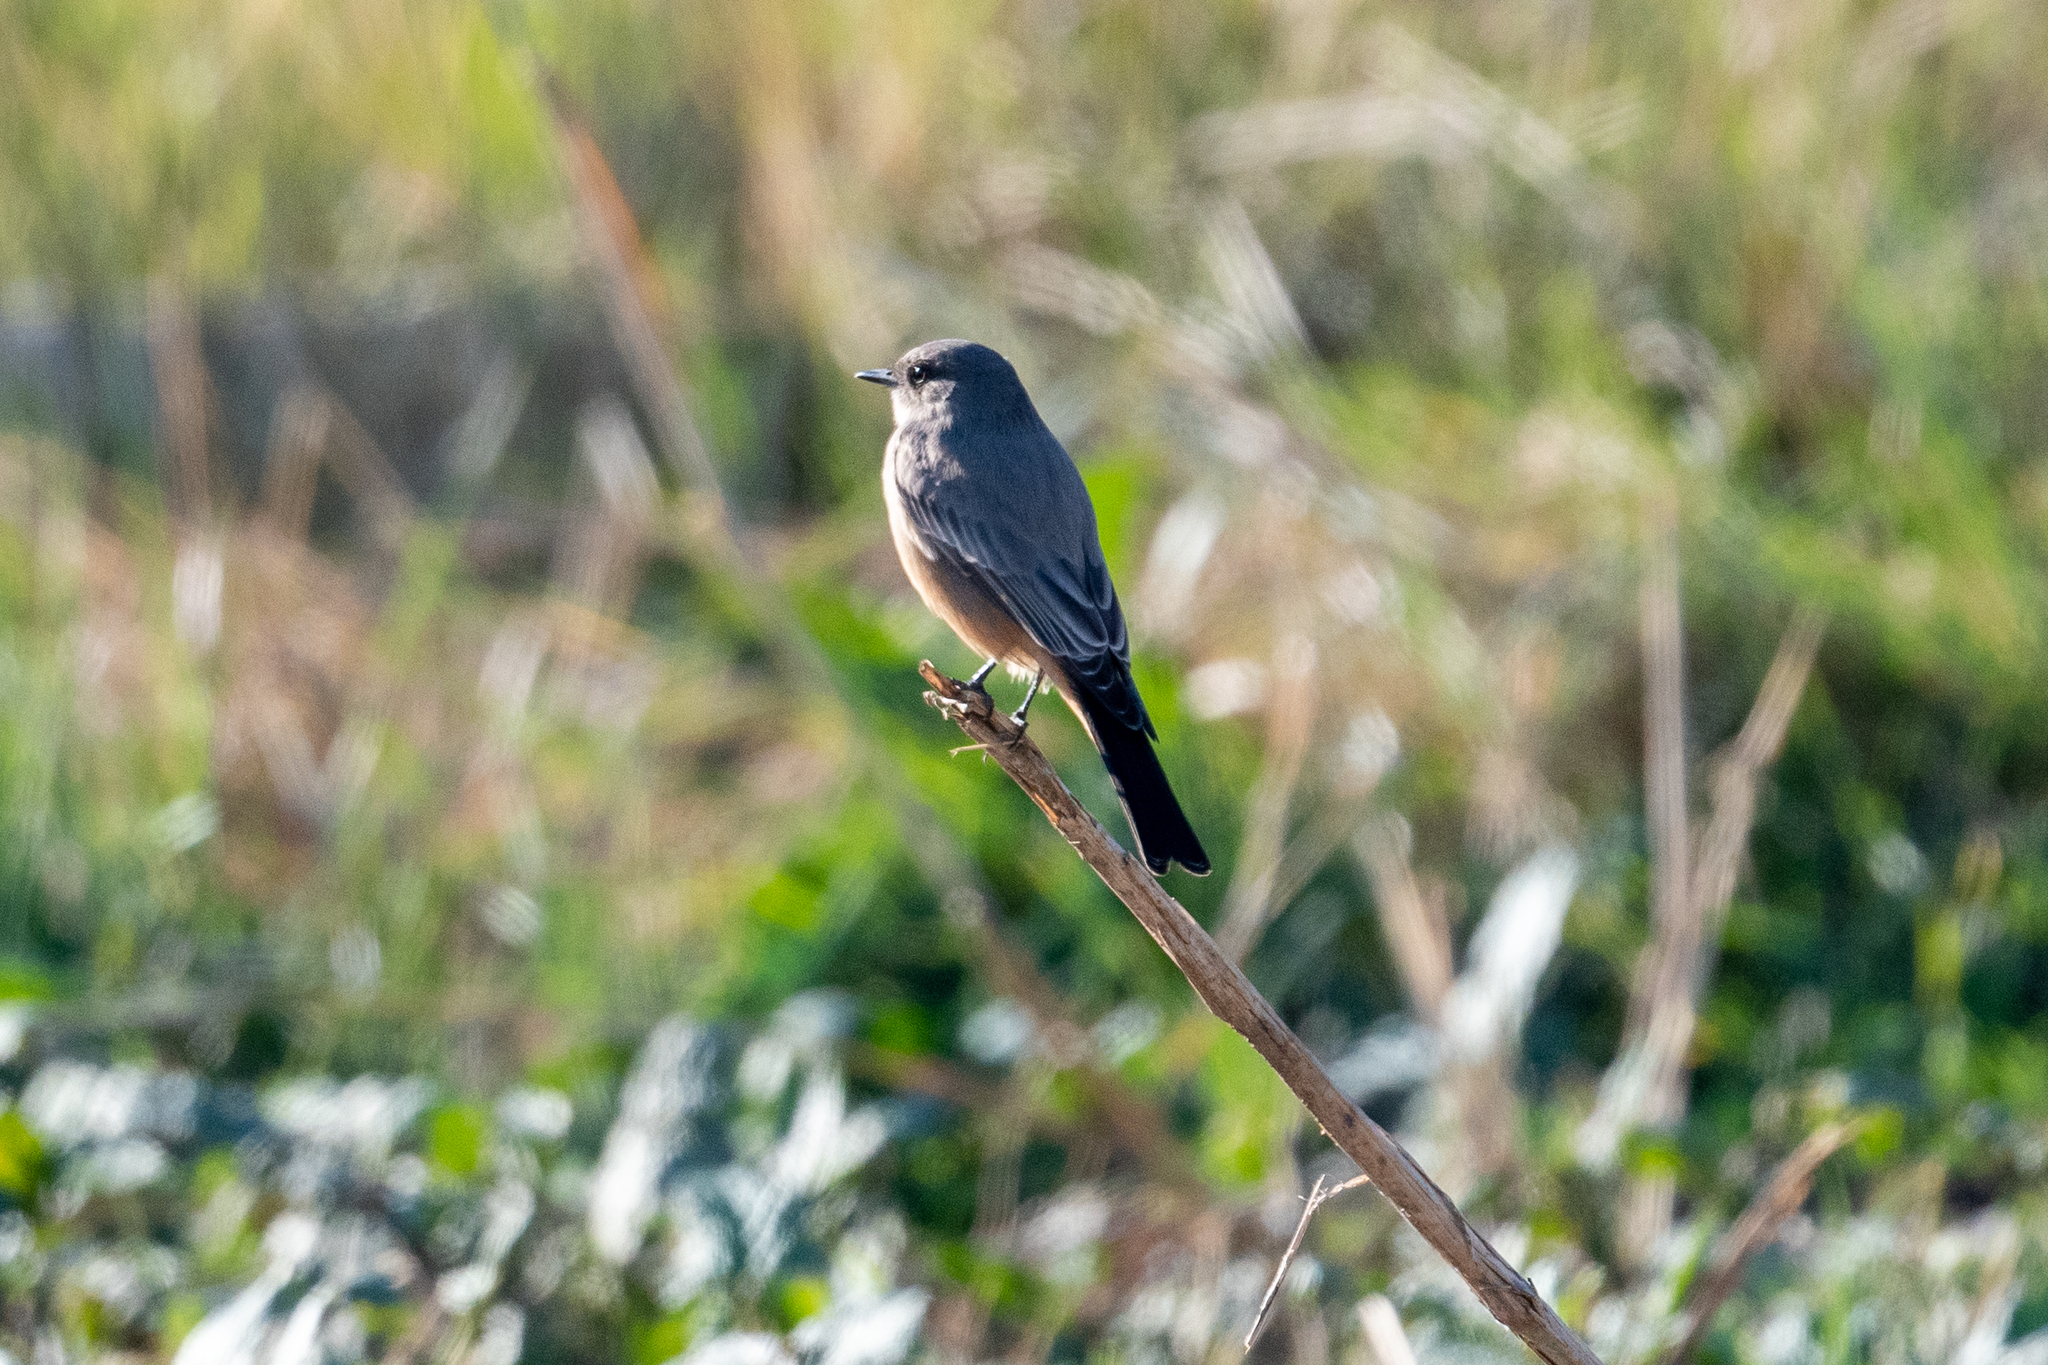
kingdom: Animalia
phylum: Chordata
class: Aves
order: Passeriformes
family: Tyrannidae
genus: Sayornis
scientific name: Sayornis saya
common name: Say's phoebe
